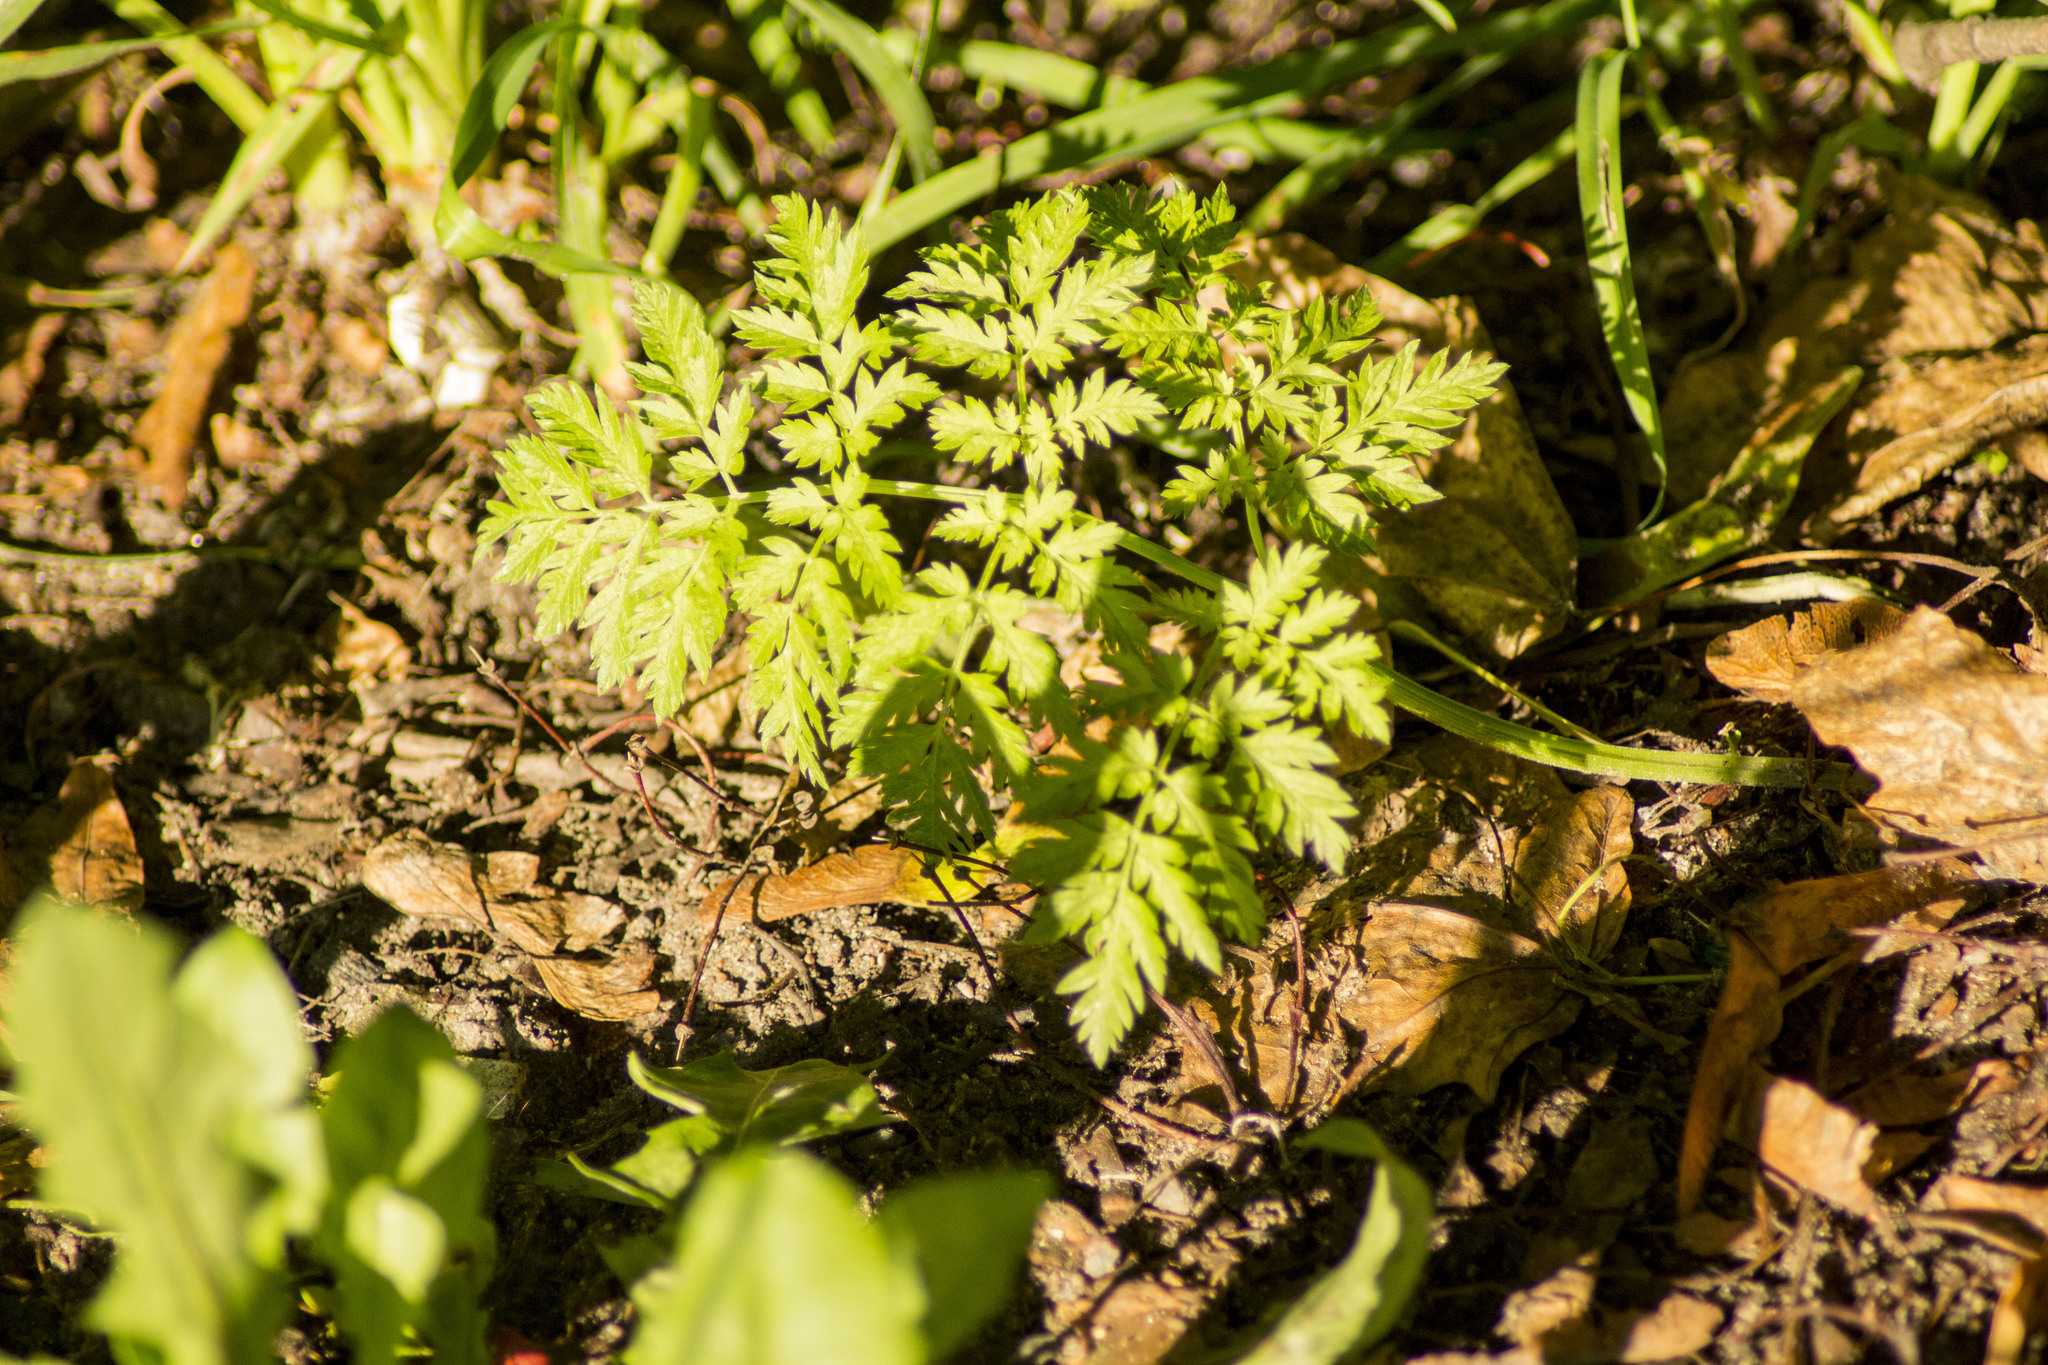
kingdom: Plantae
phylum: Tracheophyta
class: Magnoliopsida
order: Apiales
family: Apiaceae
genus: Anthriscus
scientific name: Anthriscus sylvestris
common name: Cow parsley
